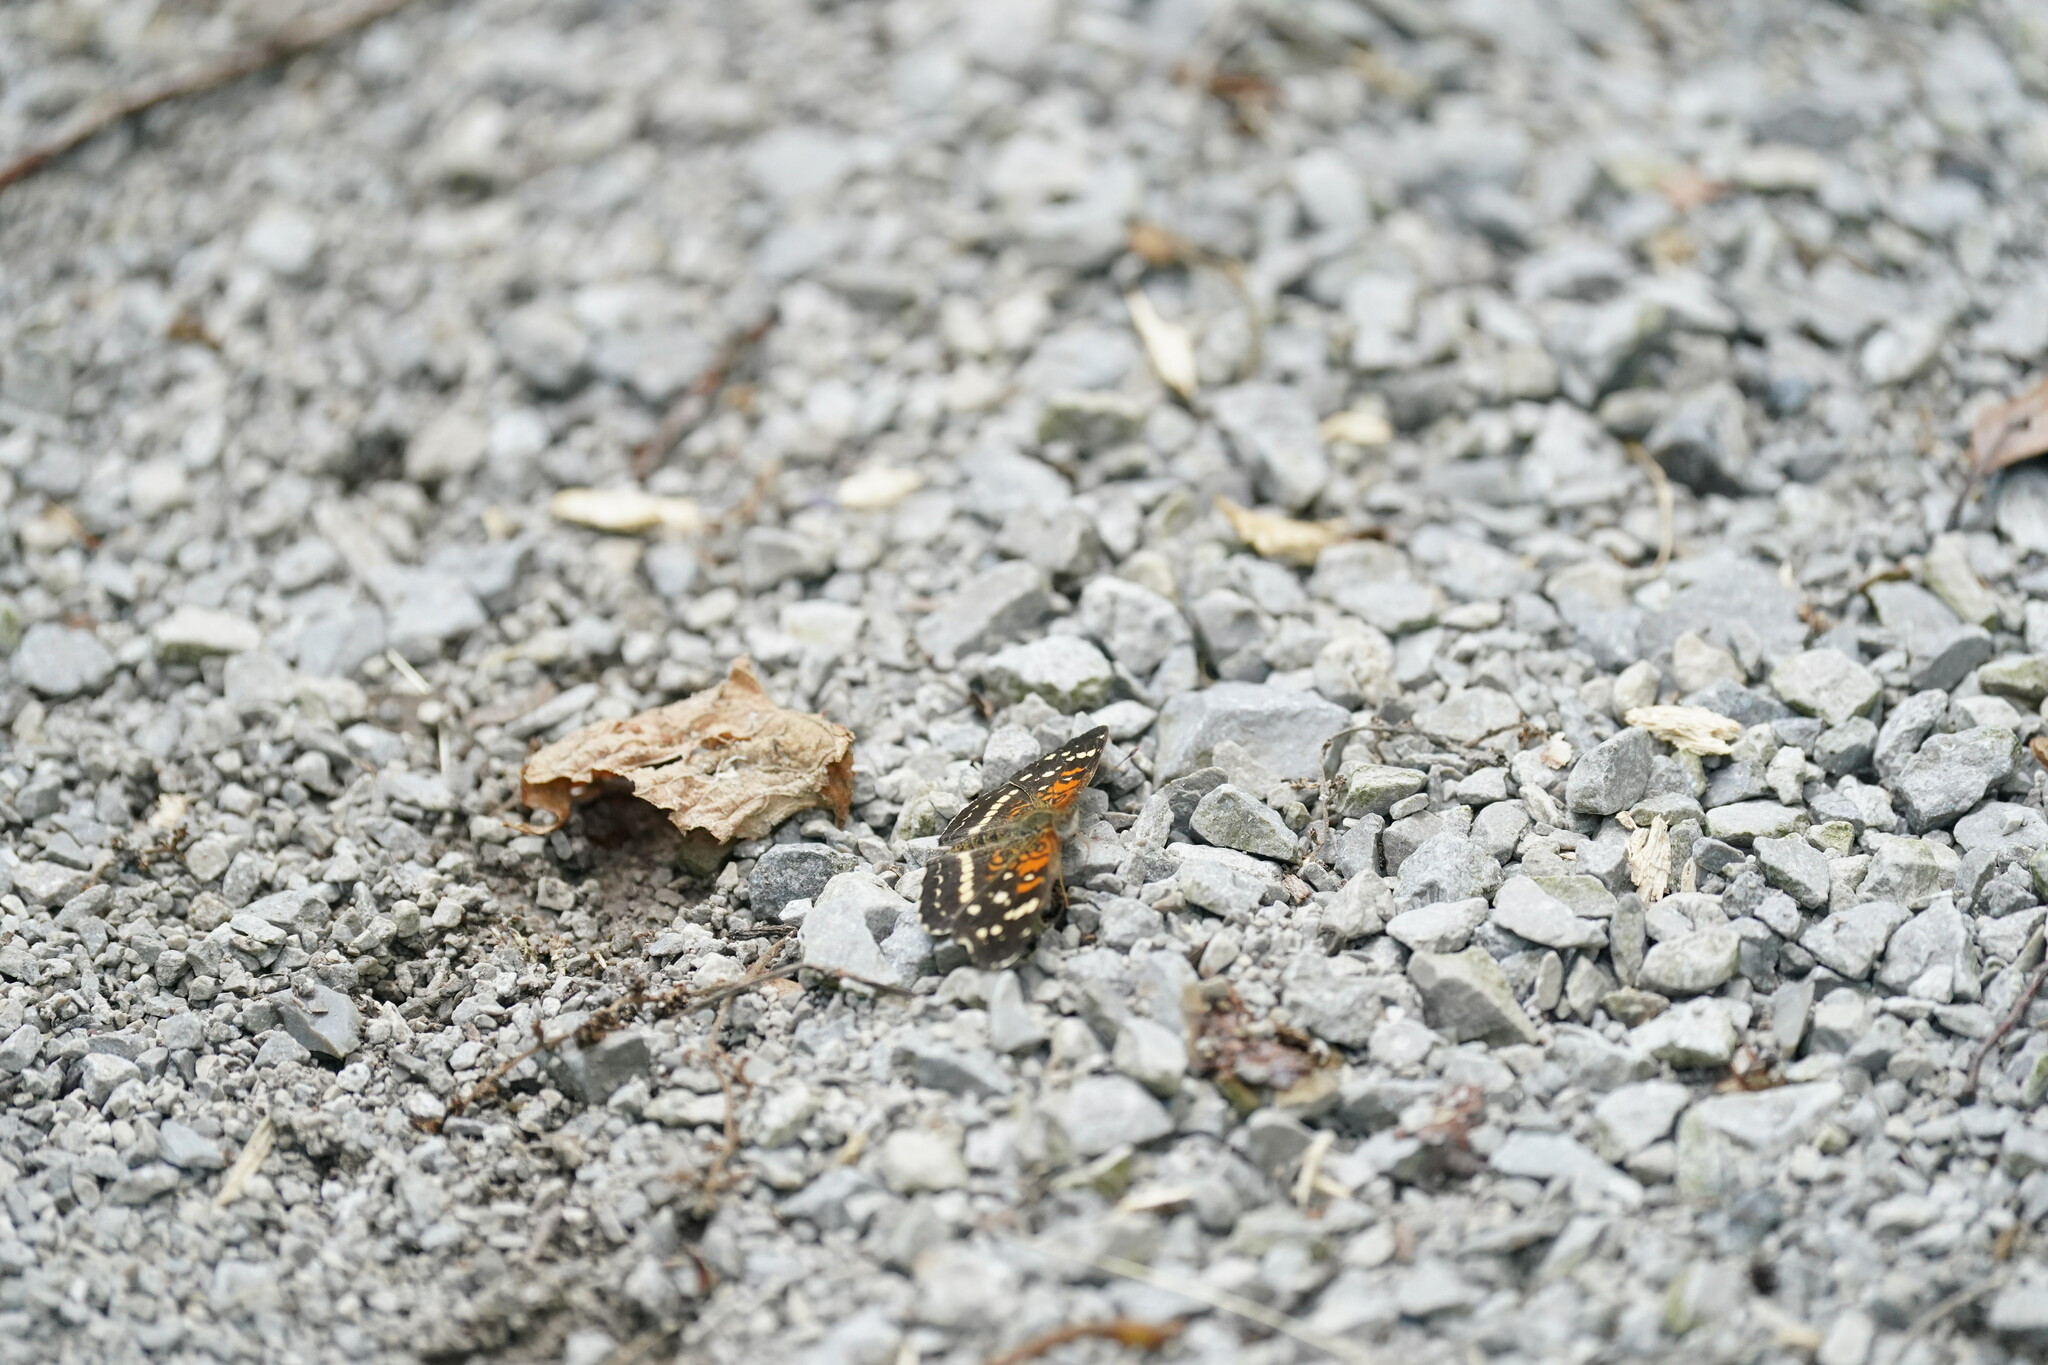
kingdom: Animalia
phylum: Arthropoda
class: Insecta
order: Lepidoptera
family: Nymphalidae
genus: Anthanassa
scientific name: Anthanassa taxana
